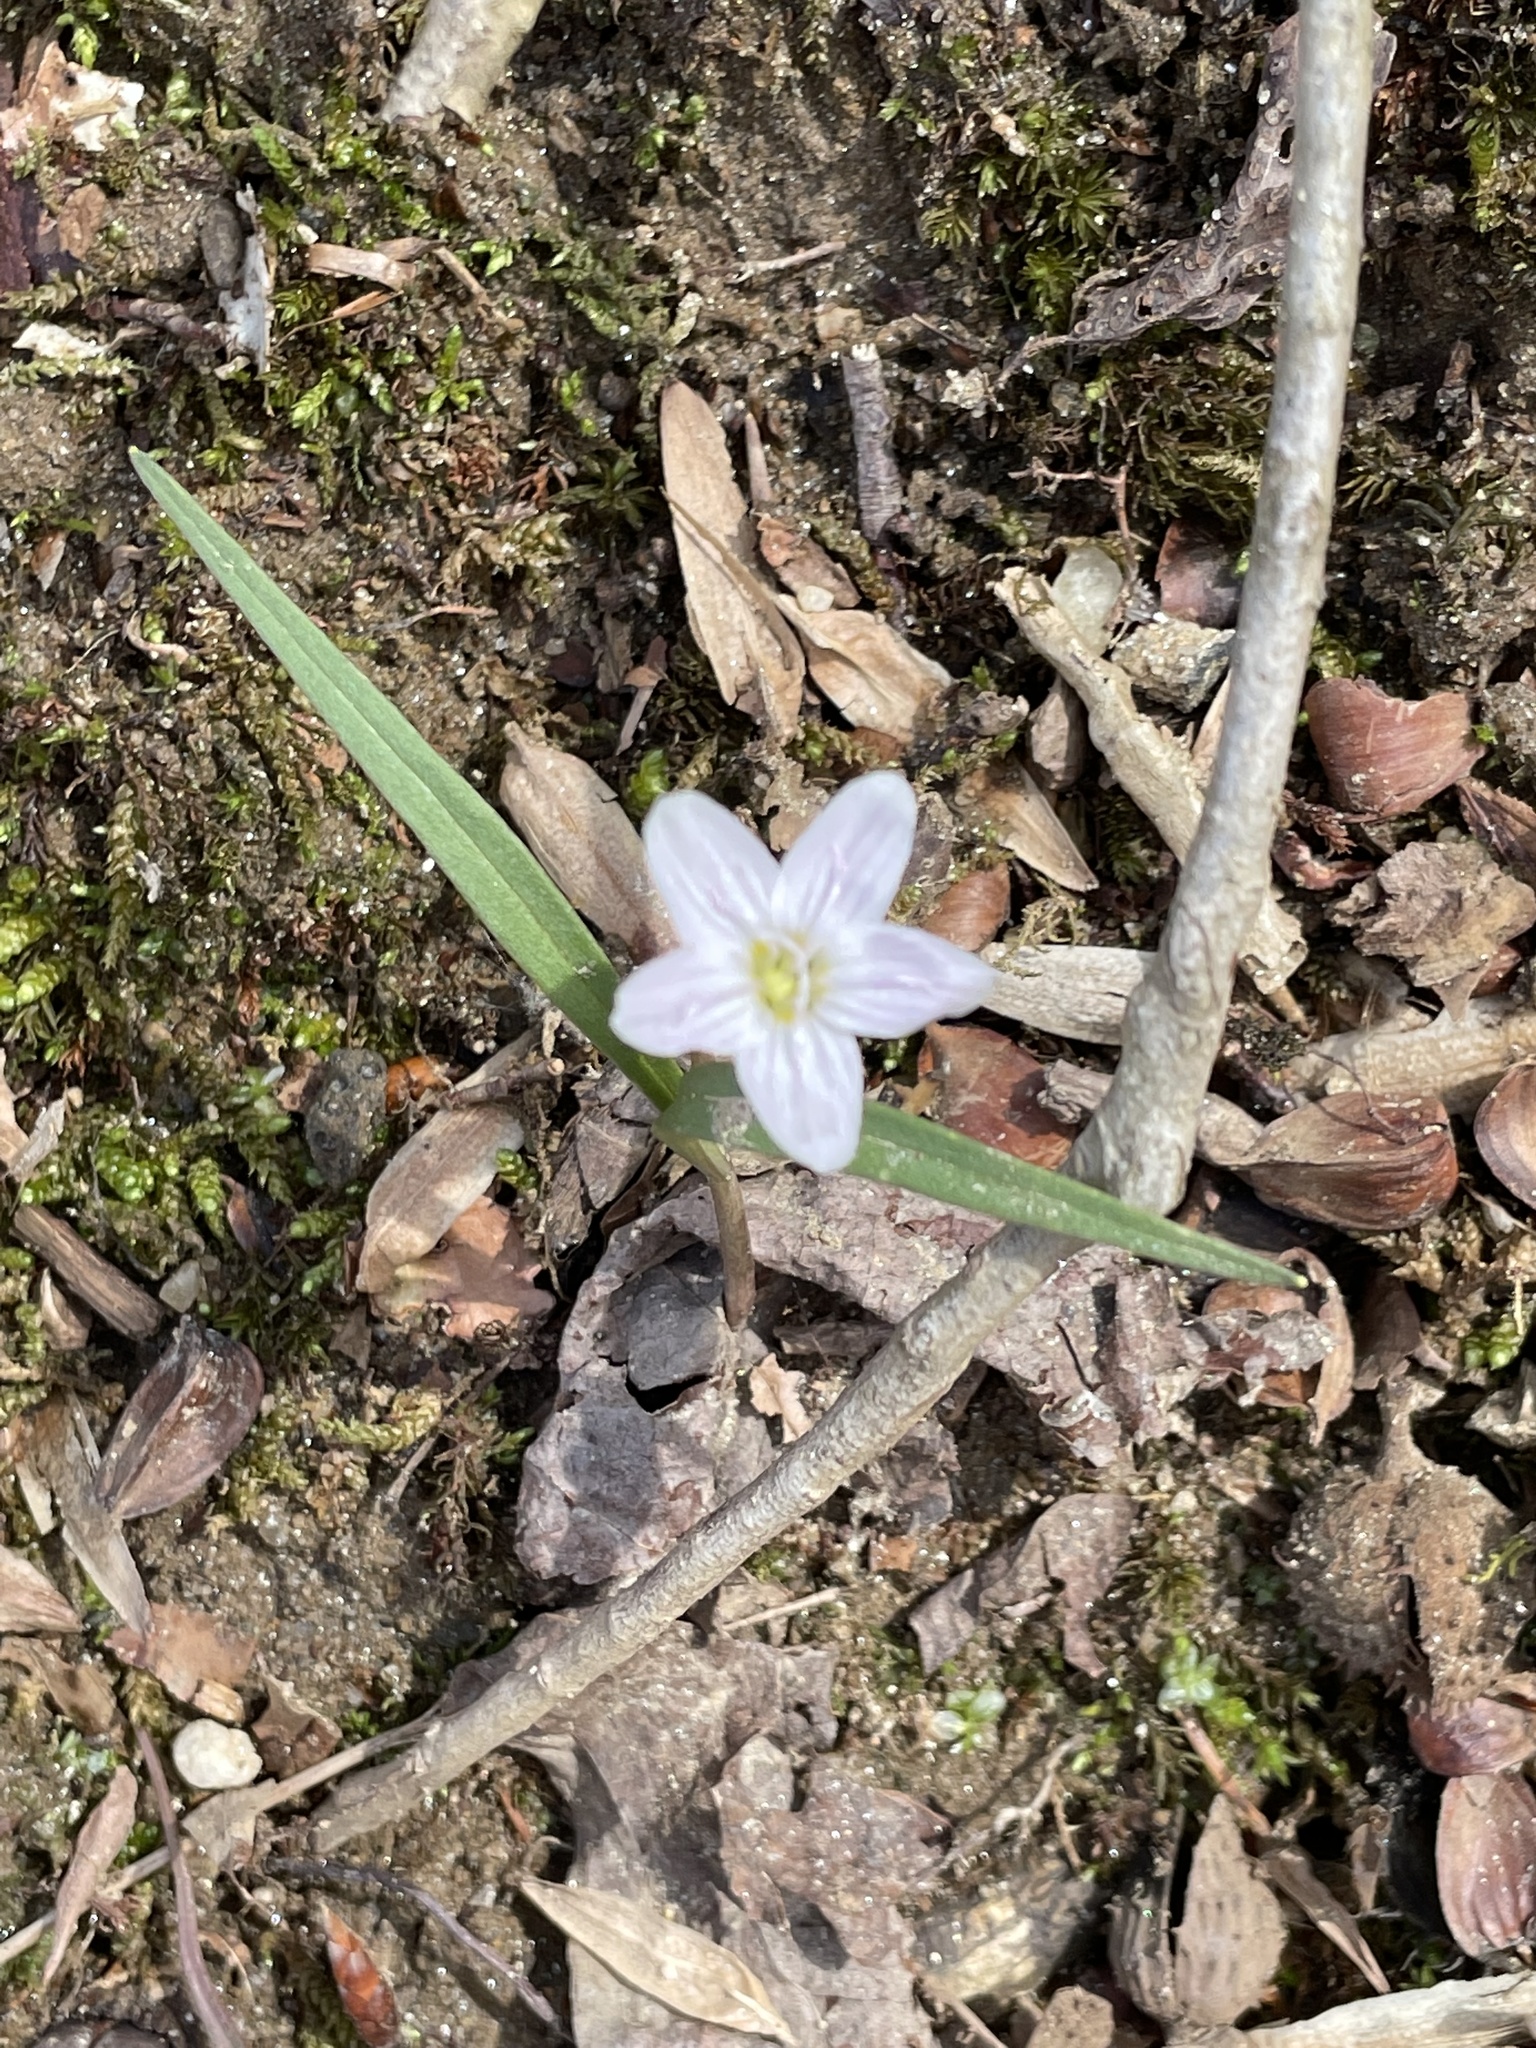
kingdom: Plantae
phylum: Tracheophyta
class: Magnoliopsida
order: Caryophyllales
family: Montiaceae
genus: Claytonia
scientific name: Claytonia virginica
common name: Virginia springbeauty
